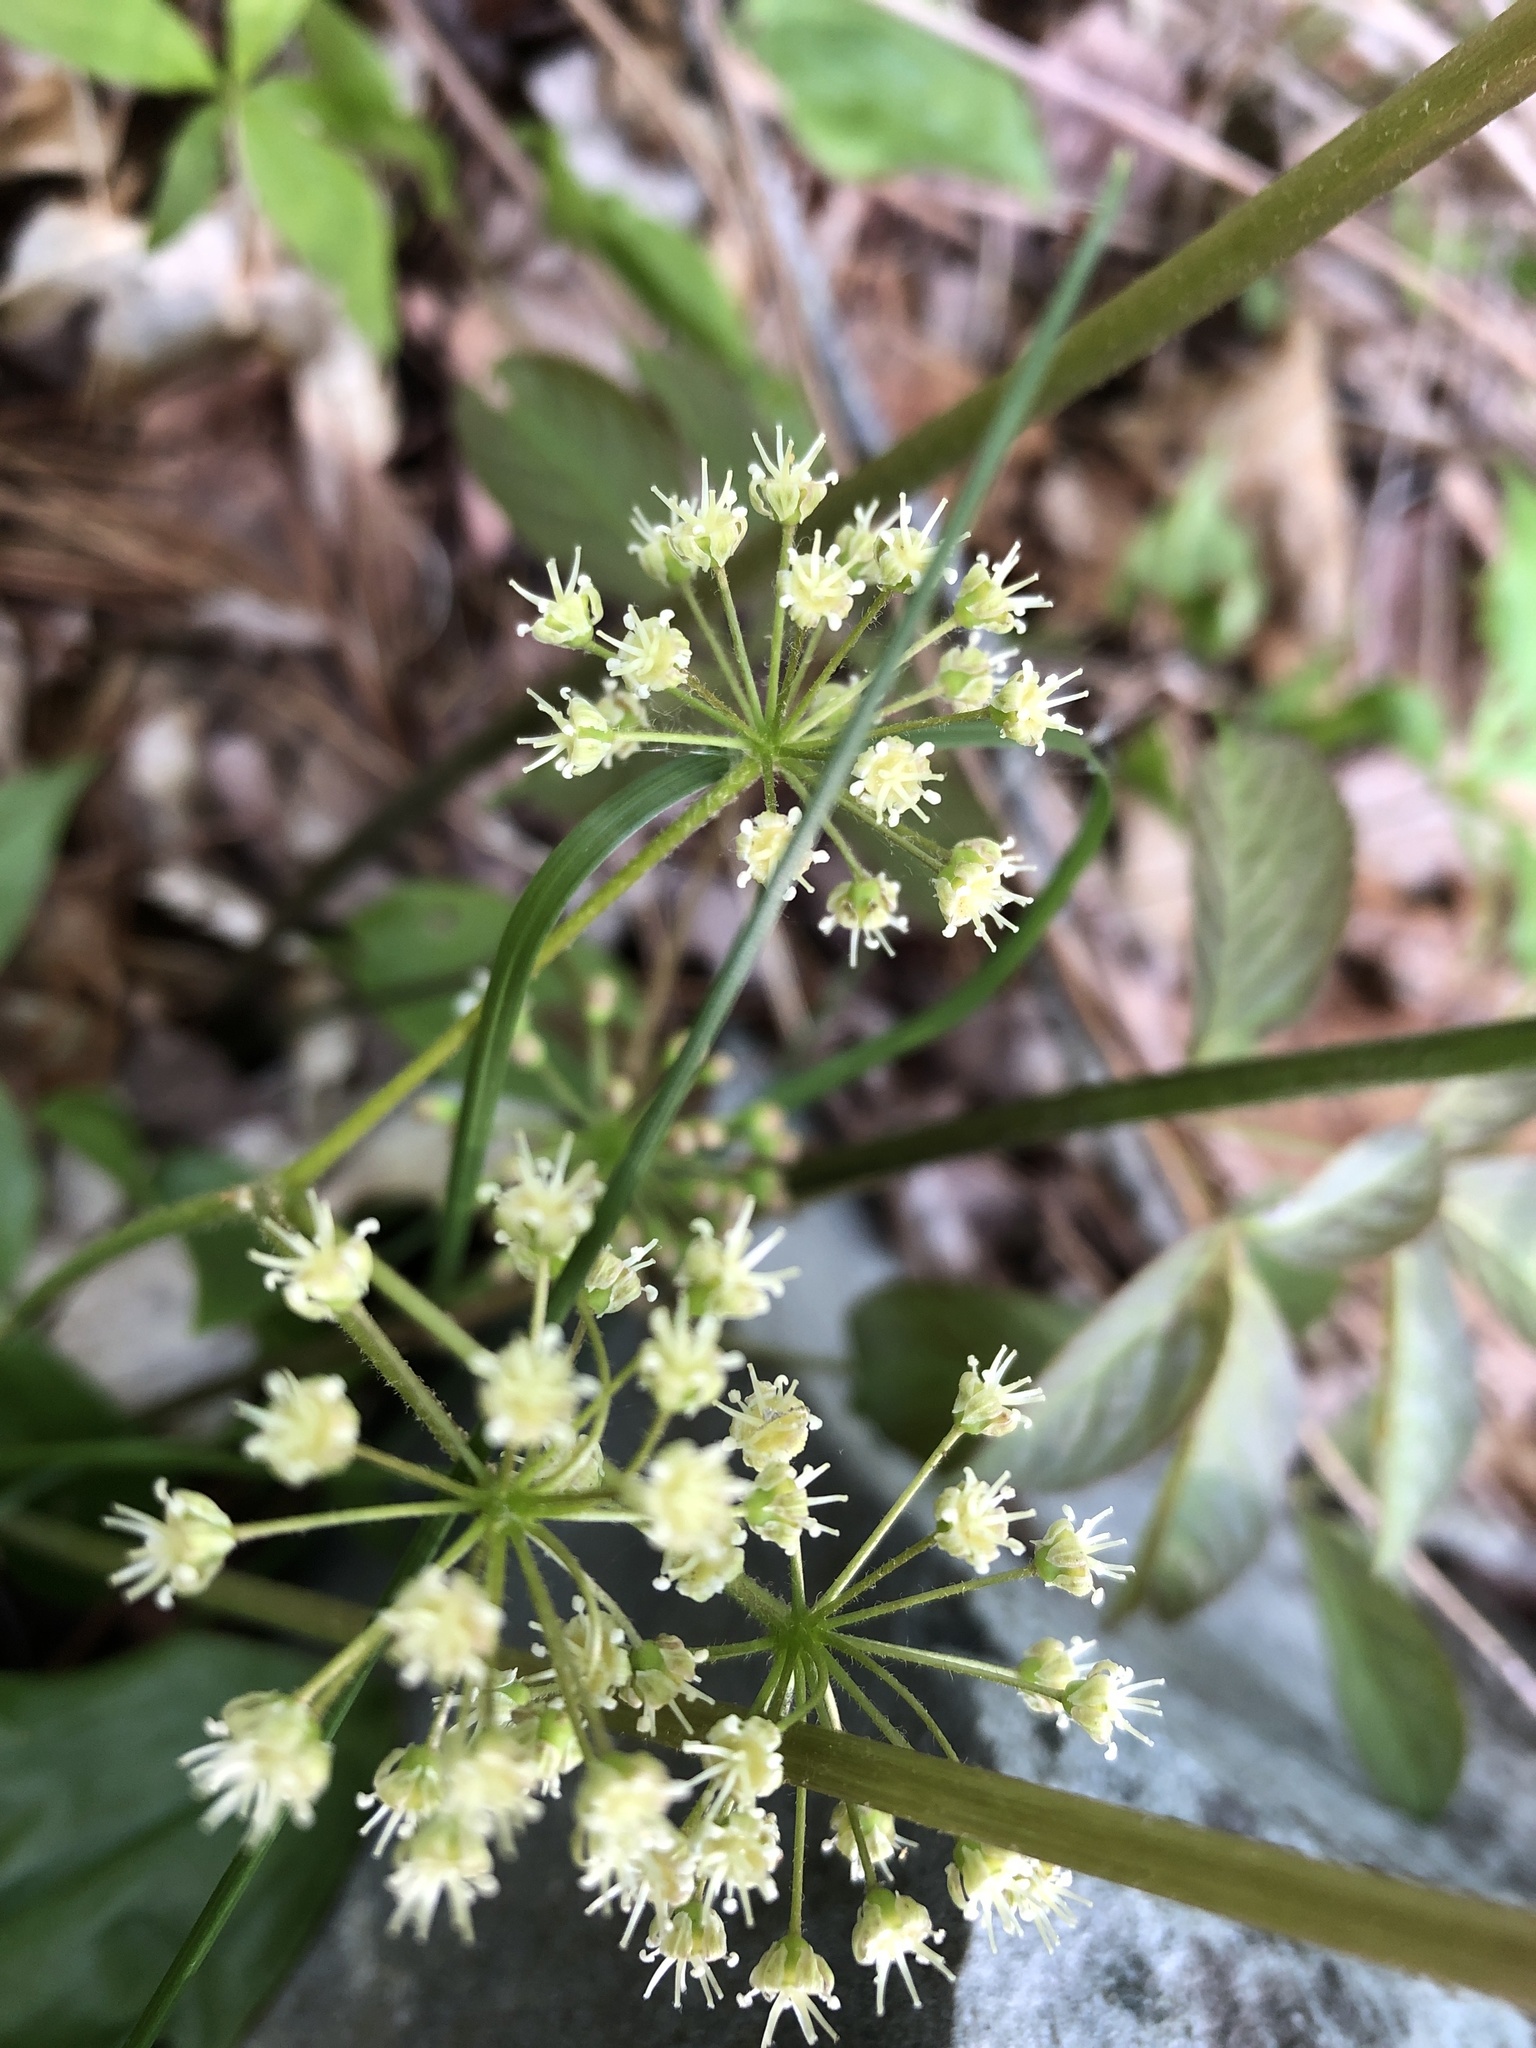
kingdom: Plantae
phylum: Tracheophyta
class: Magnoliopsida
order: Apiales
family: Araliaceae
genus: Aralia
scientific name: Aralia nudicaulis
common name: Wild sarsaparilla
